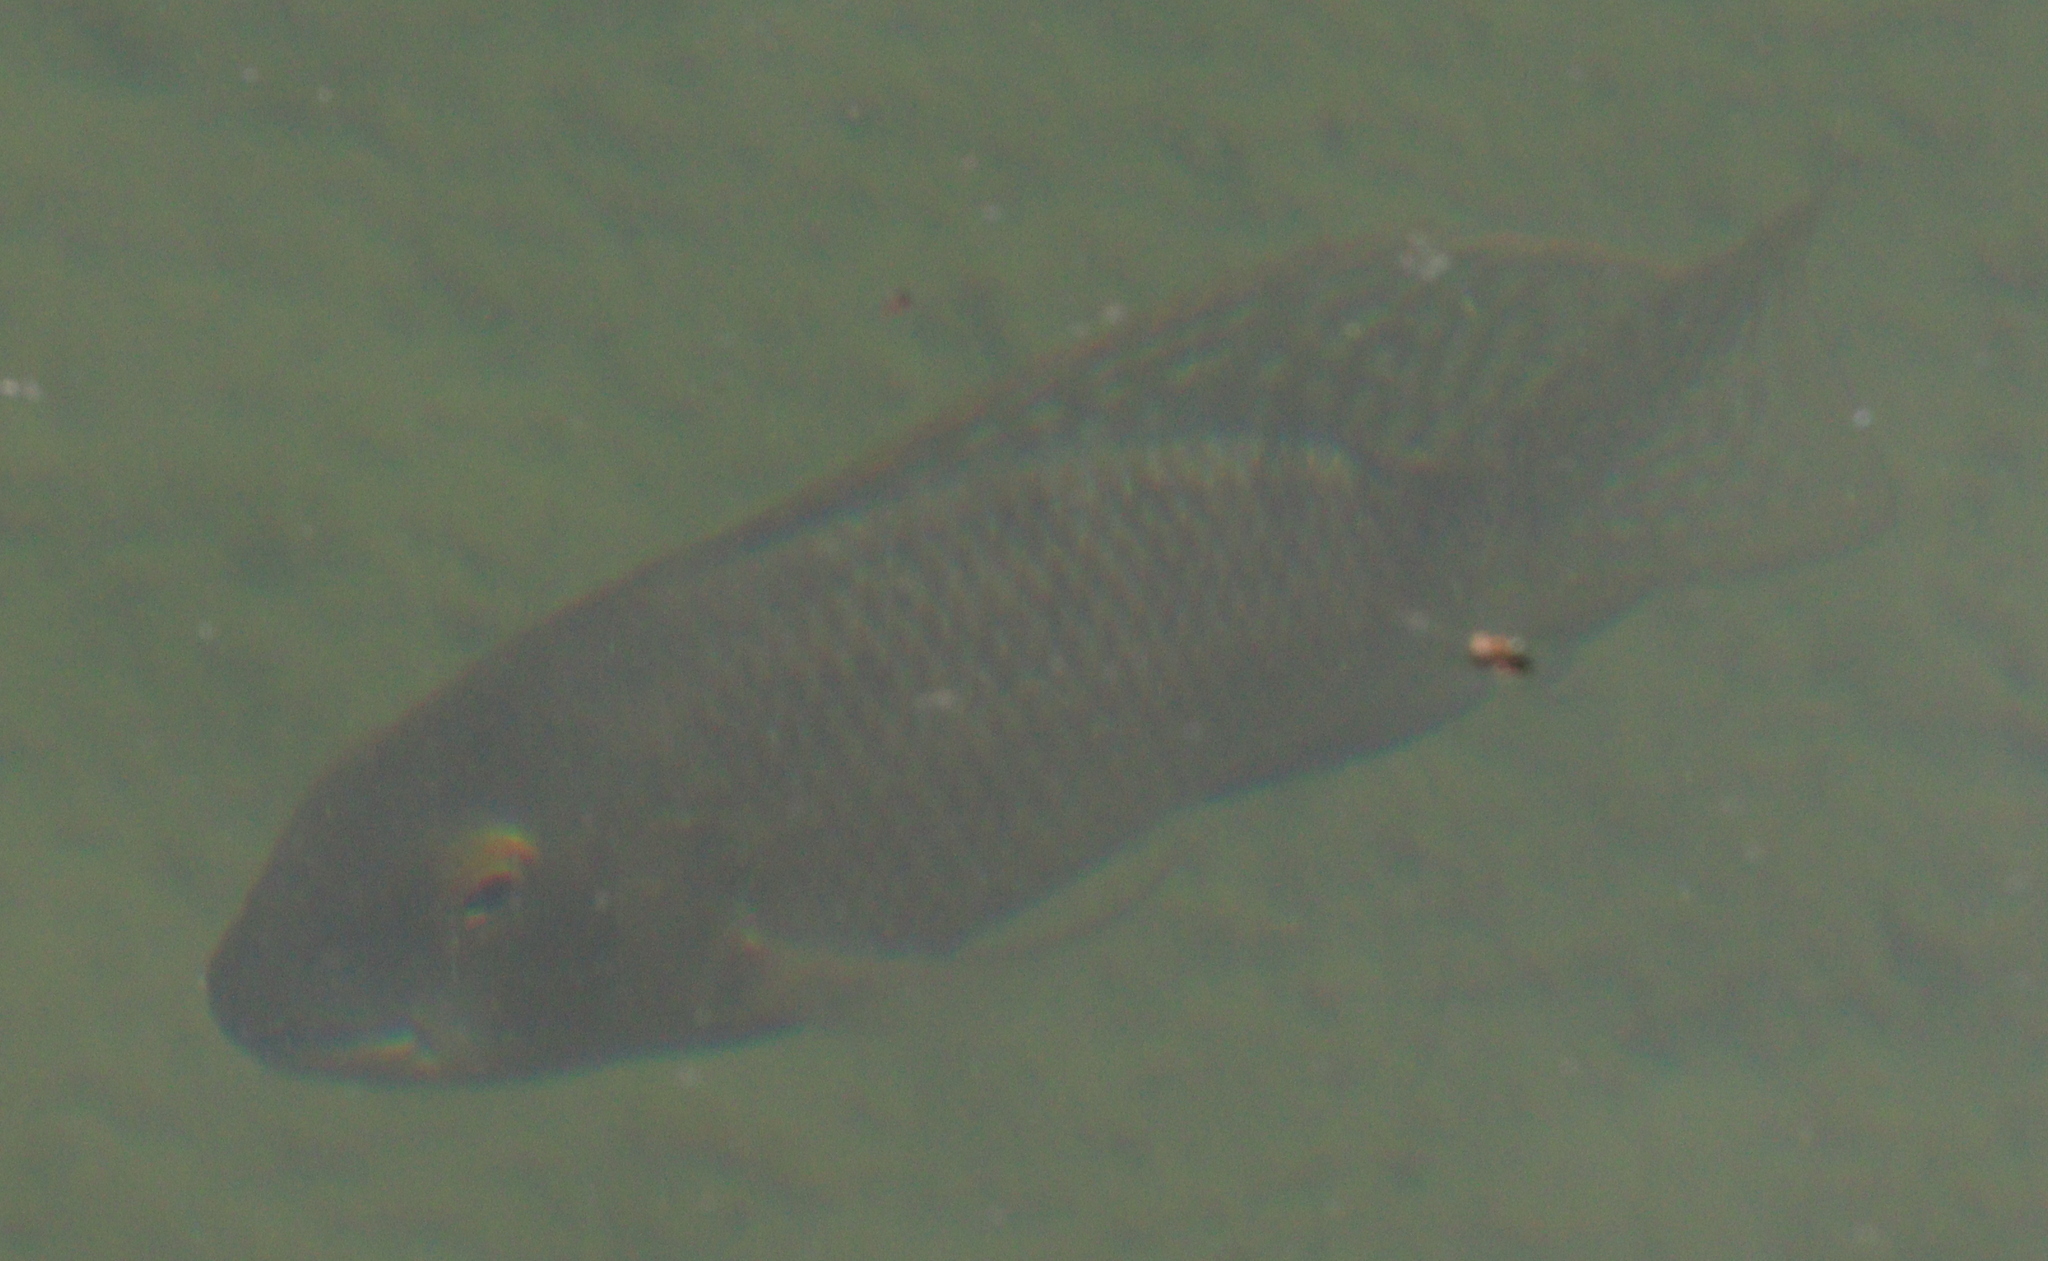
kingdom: Animalia
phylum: Chordata
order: Perciformes
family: Cichlidae
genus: Coptodon
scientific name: Coptodon zillii
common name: Redbelly tilapia
